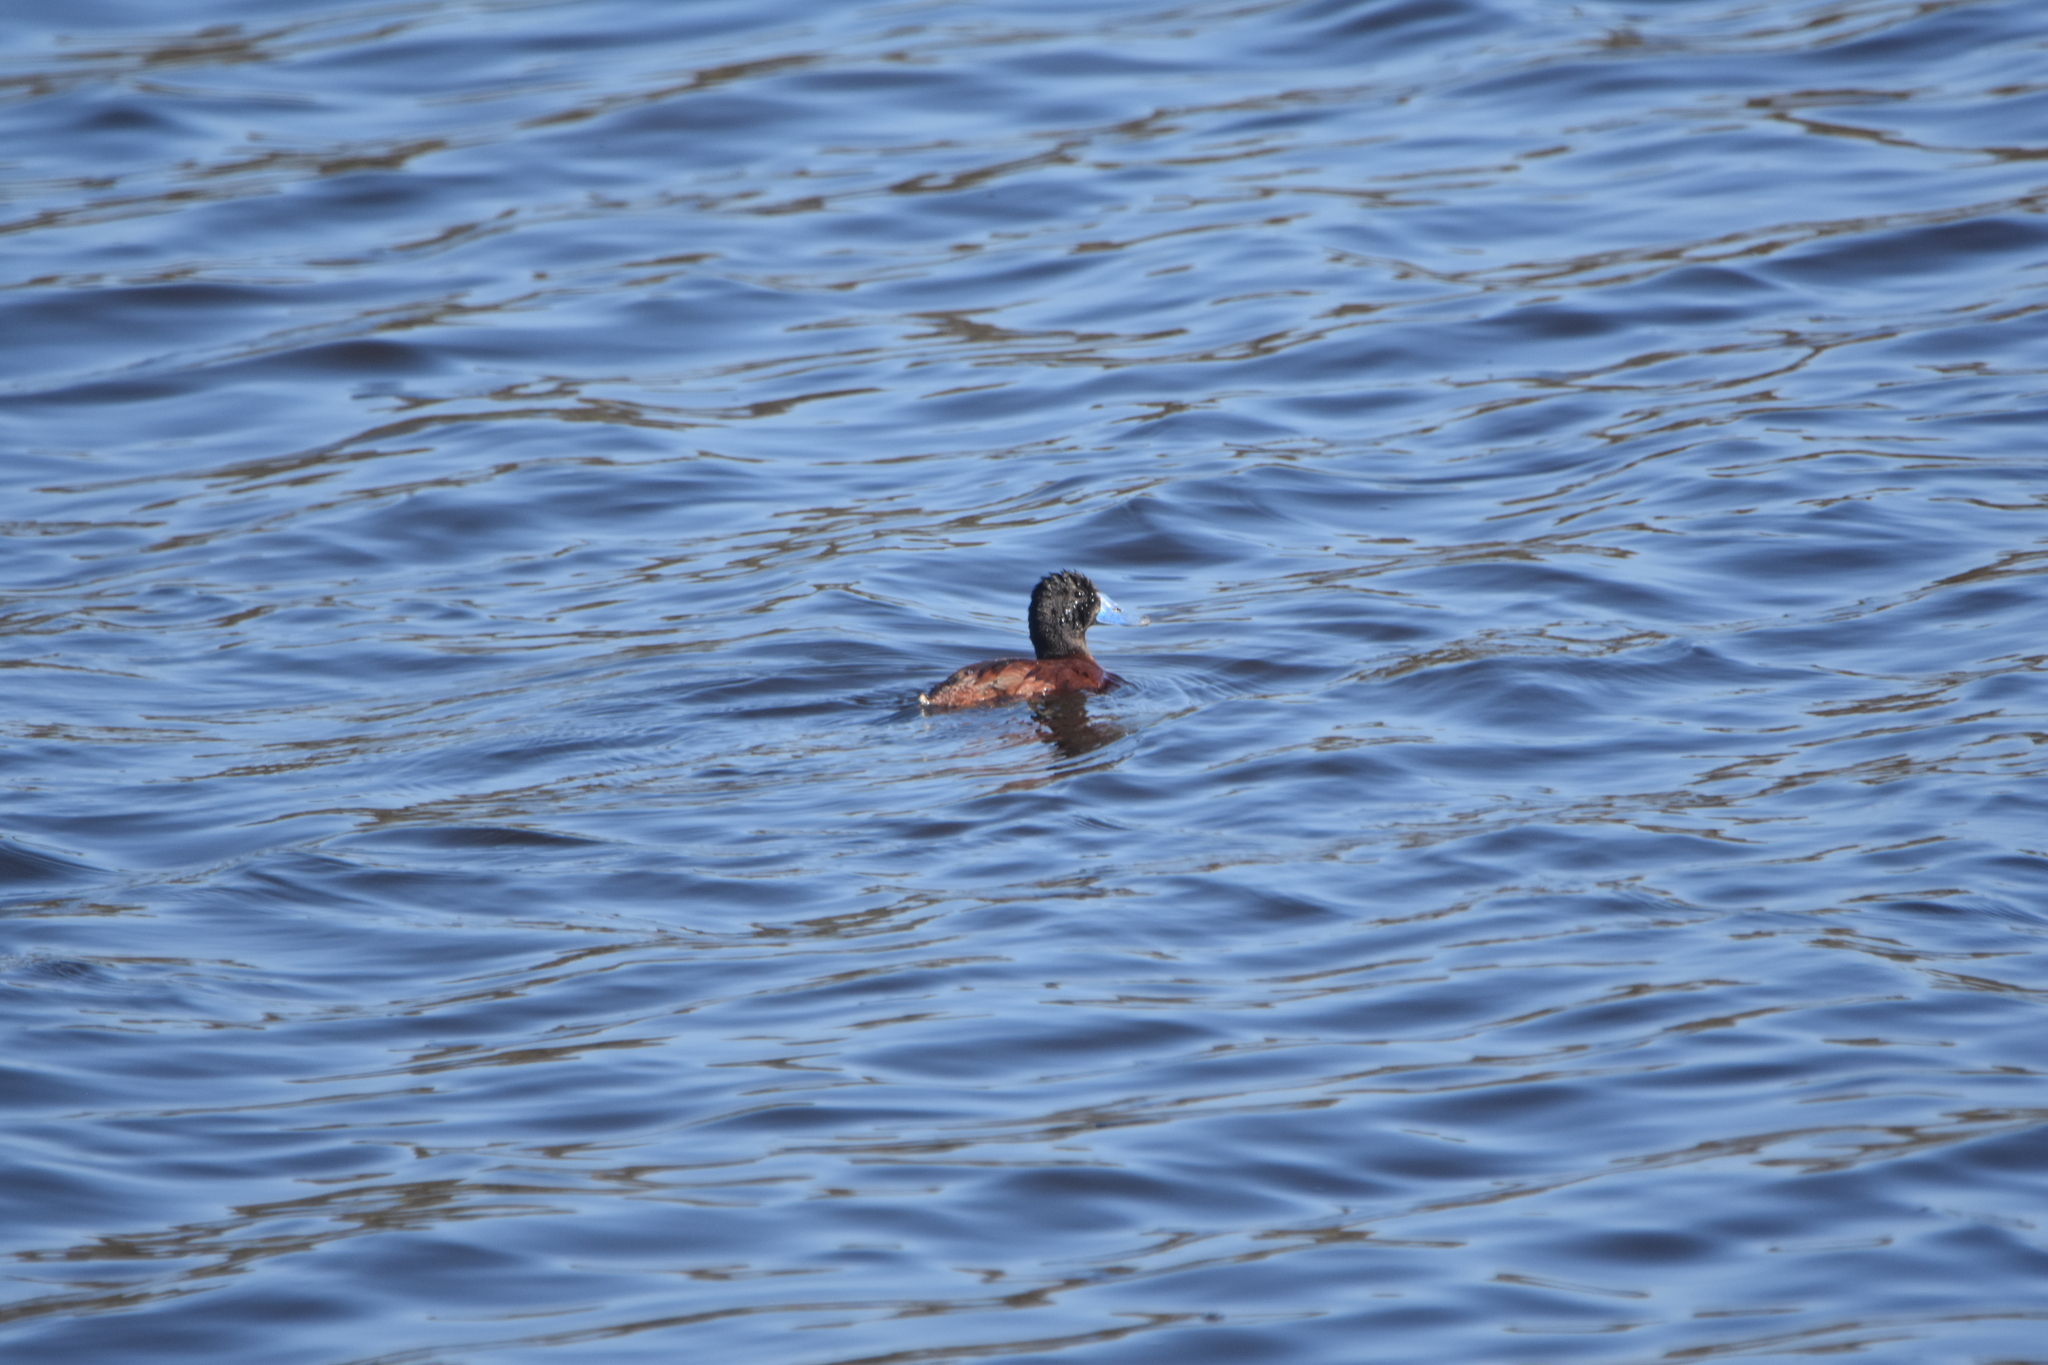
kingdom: Animalia
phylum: Chordata
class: Aves
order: Anseriformes
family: Anatidae
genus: Oxyura
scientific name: Oxyura ferruginea
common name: Andean duck
